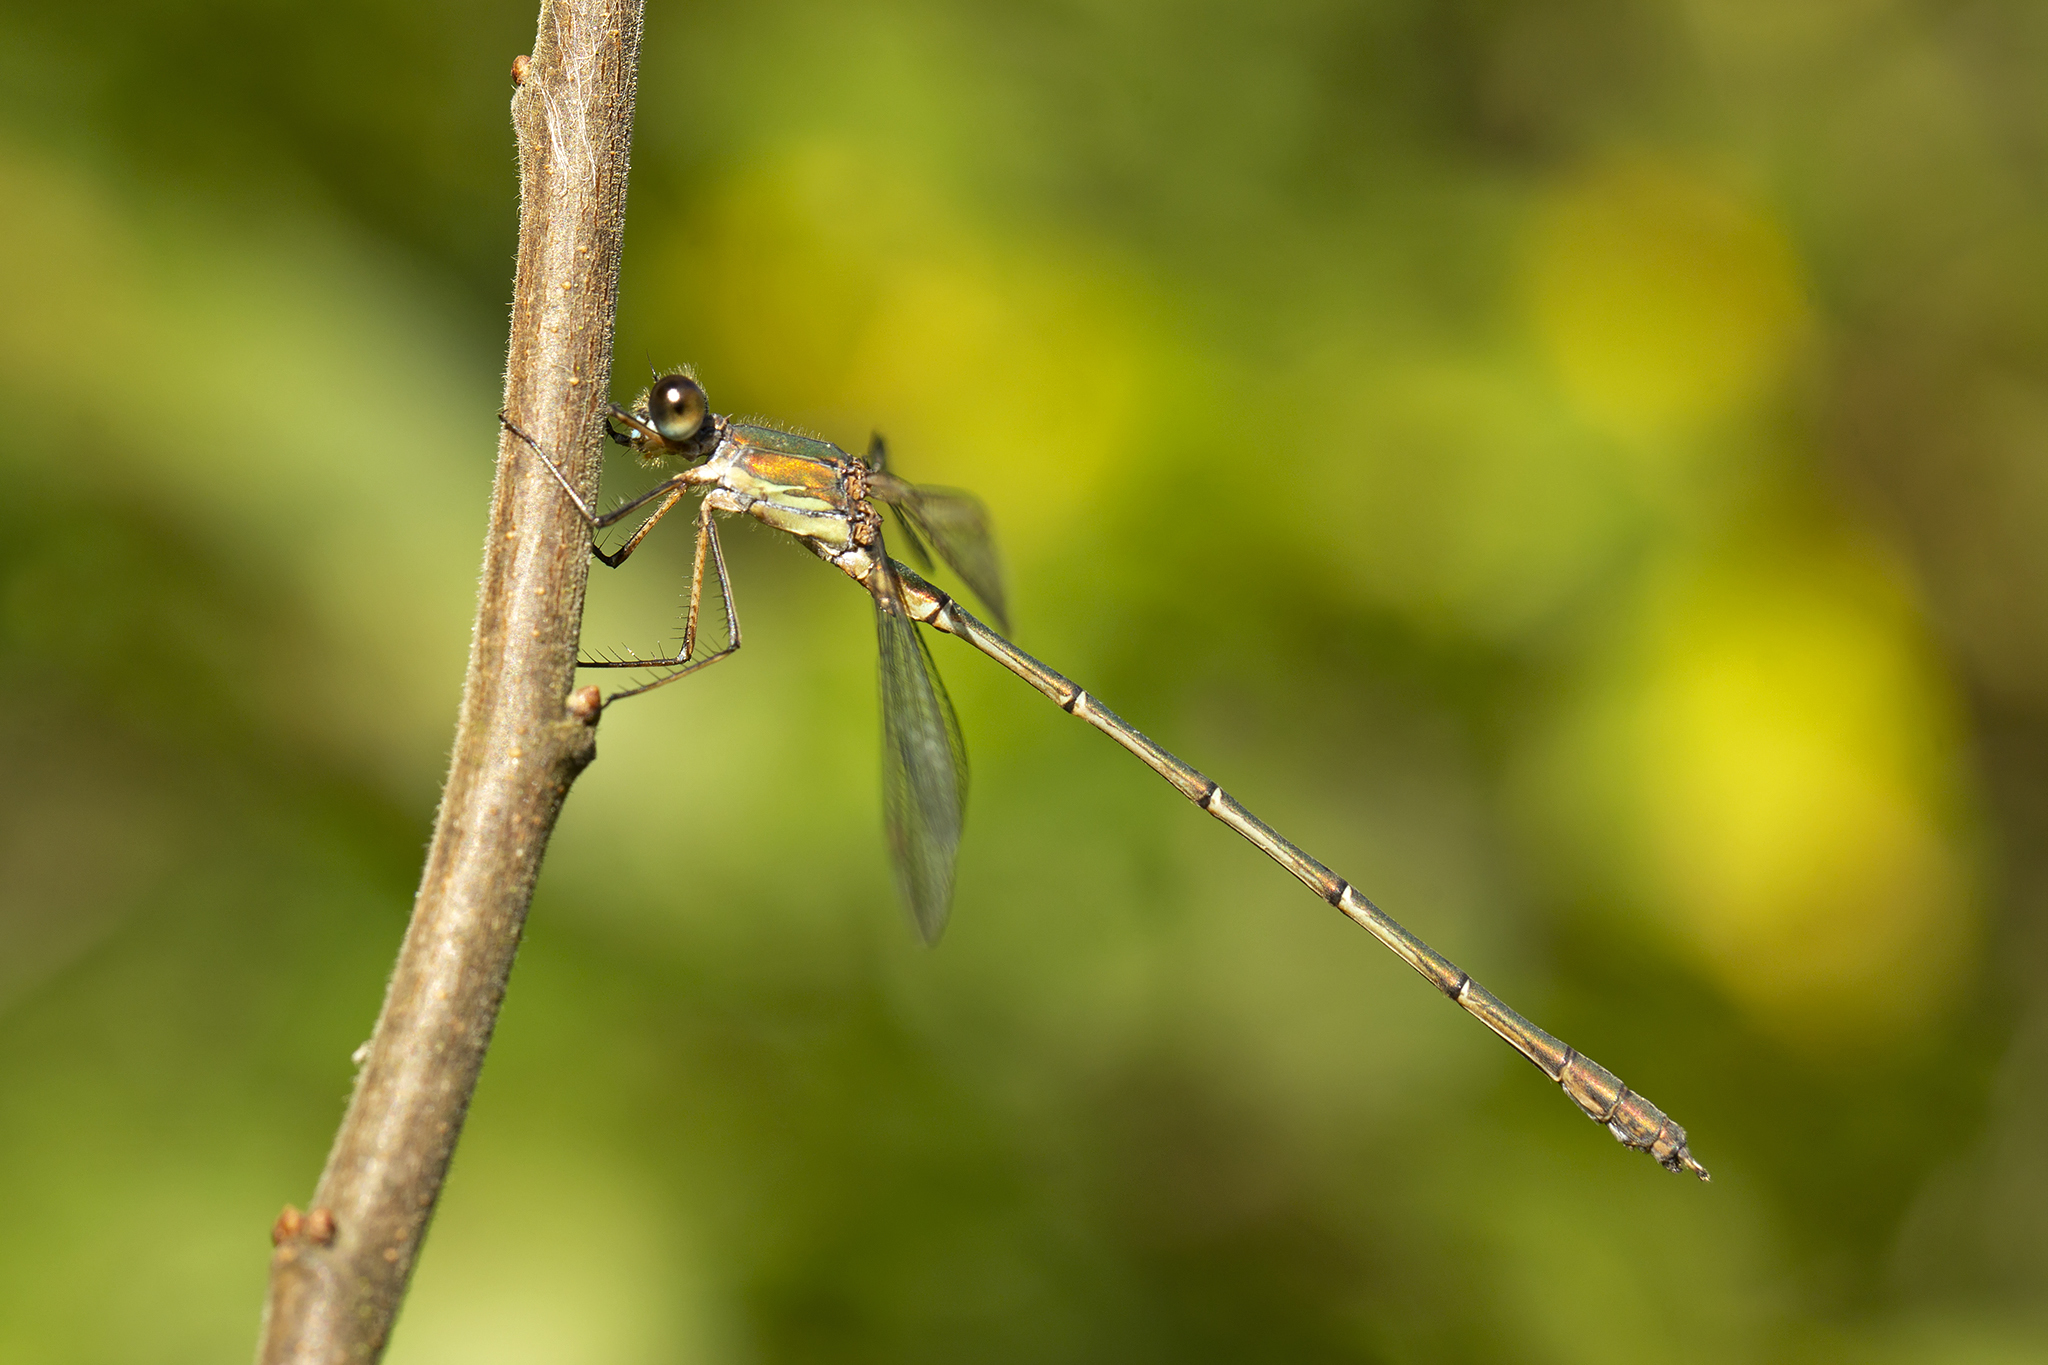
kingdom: Animalia
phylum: Arthropoda
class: Insecta
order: Odonata
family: Lestidae
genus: Chalcolestes
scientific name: Chalcolestes viridis
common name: Green emerald damselfly
